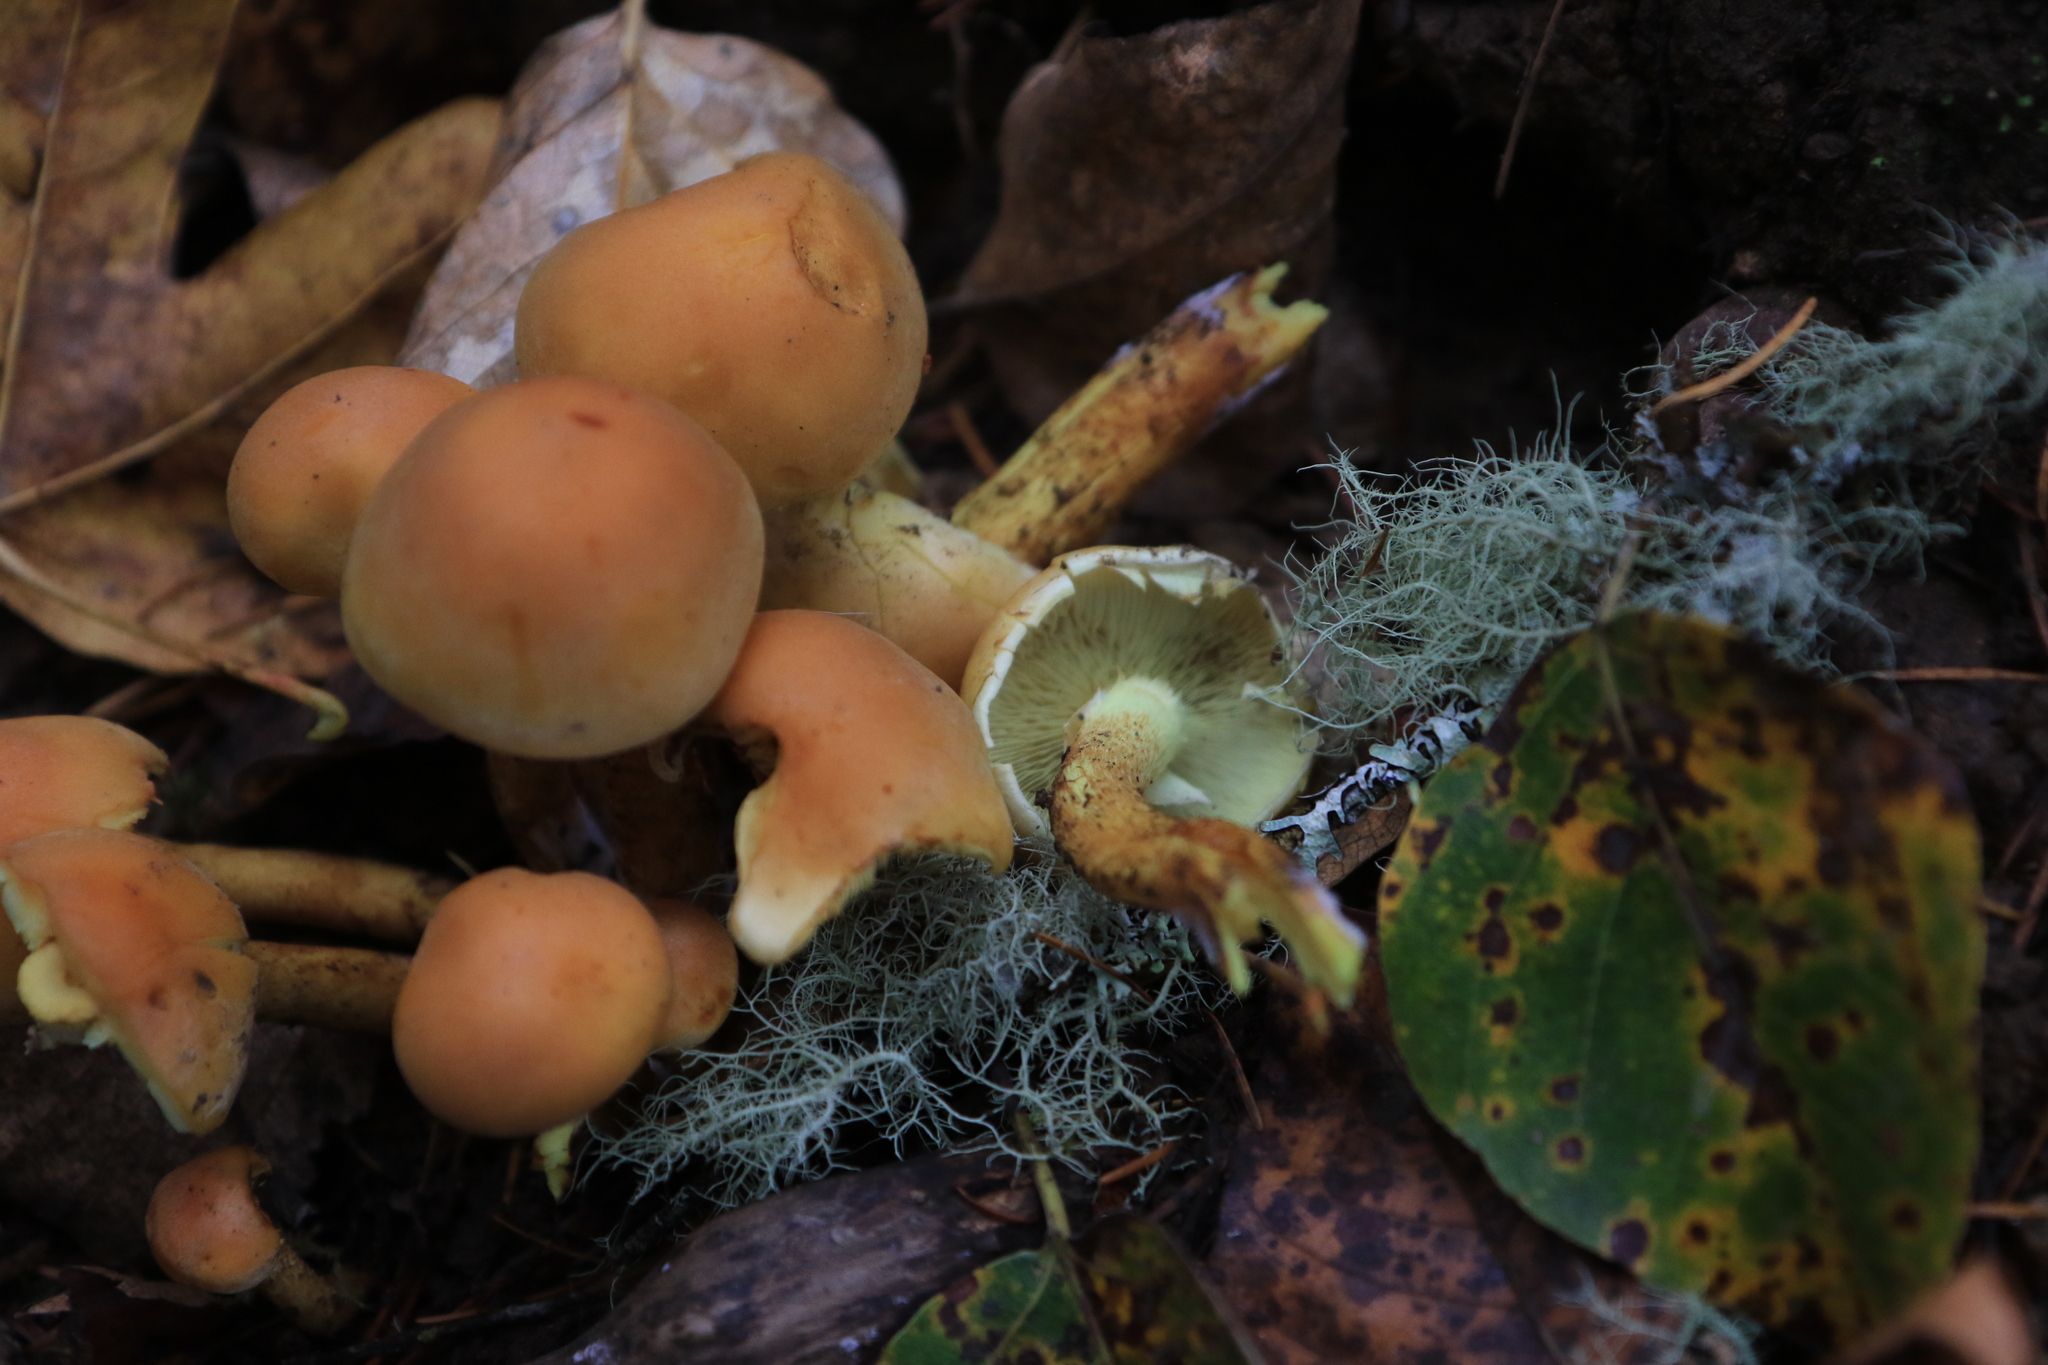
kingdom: Fungi
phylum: Basidiomycota
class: Agaricomycetes
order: Agaricales
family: Strophariaceae
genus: Hypholoma
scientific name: Hypholoma fasciculare
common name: Sulphur tuft
